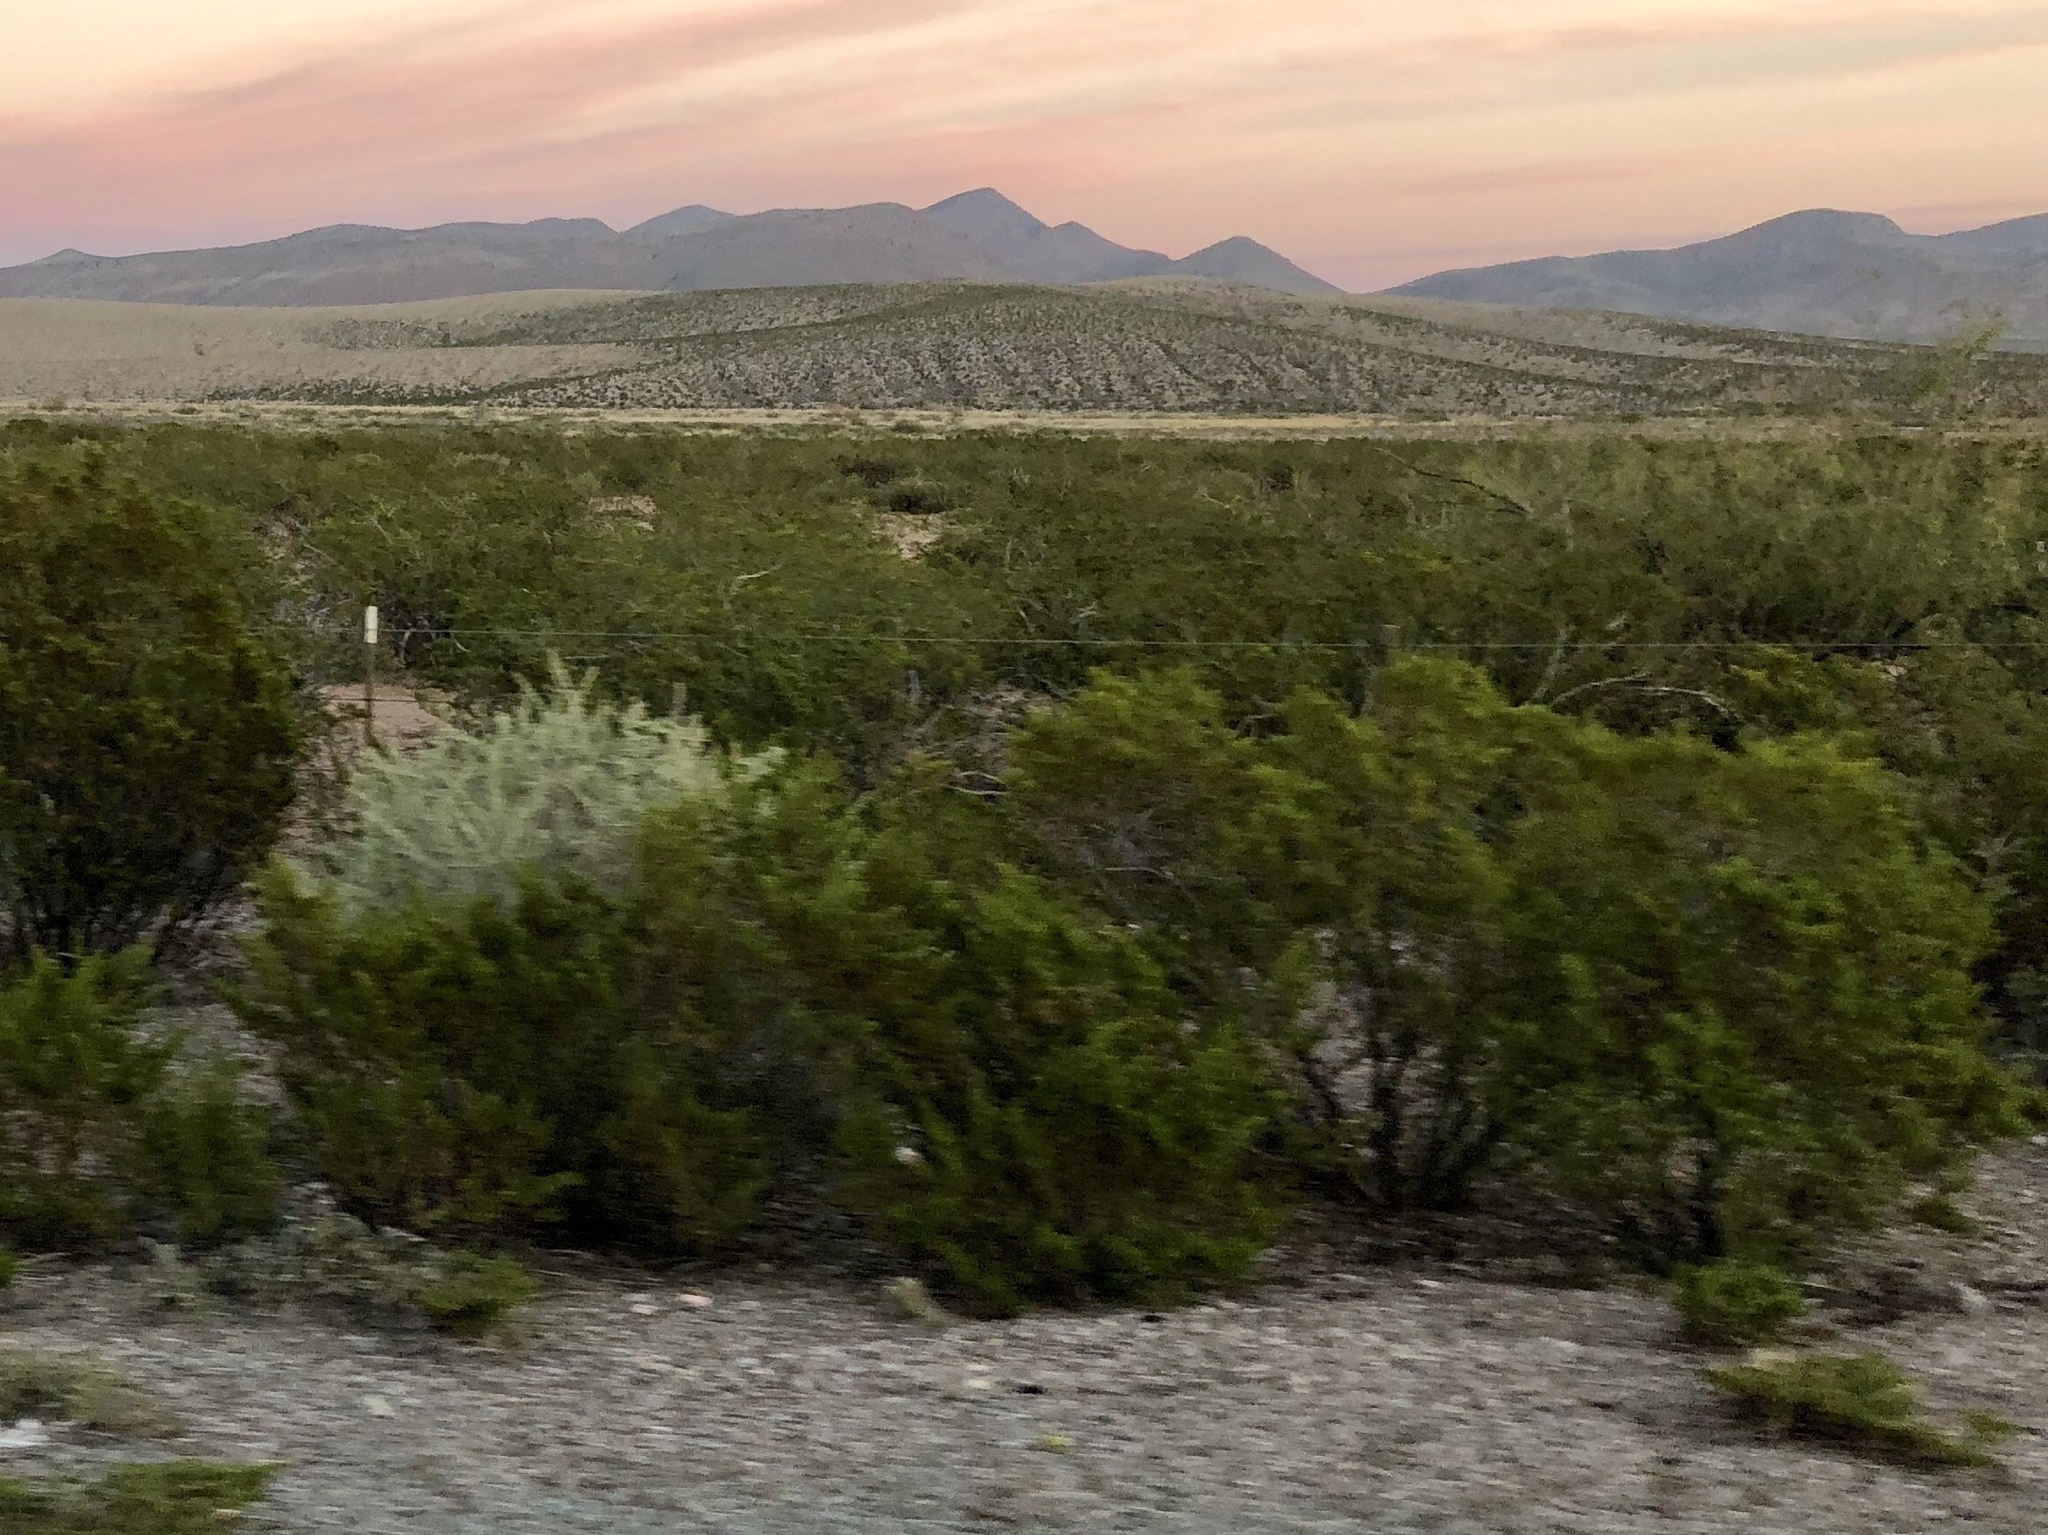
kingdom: Plantae
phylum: Tracheophyta
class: Magnoliopsida
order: Zygophyllales
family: Zygophyllaceae
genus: Larrea
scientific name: Larrea tridentata
